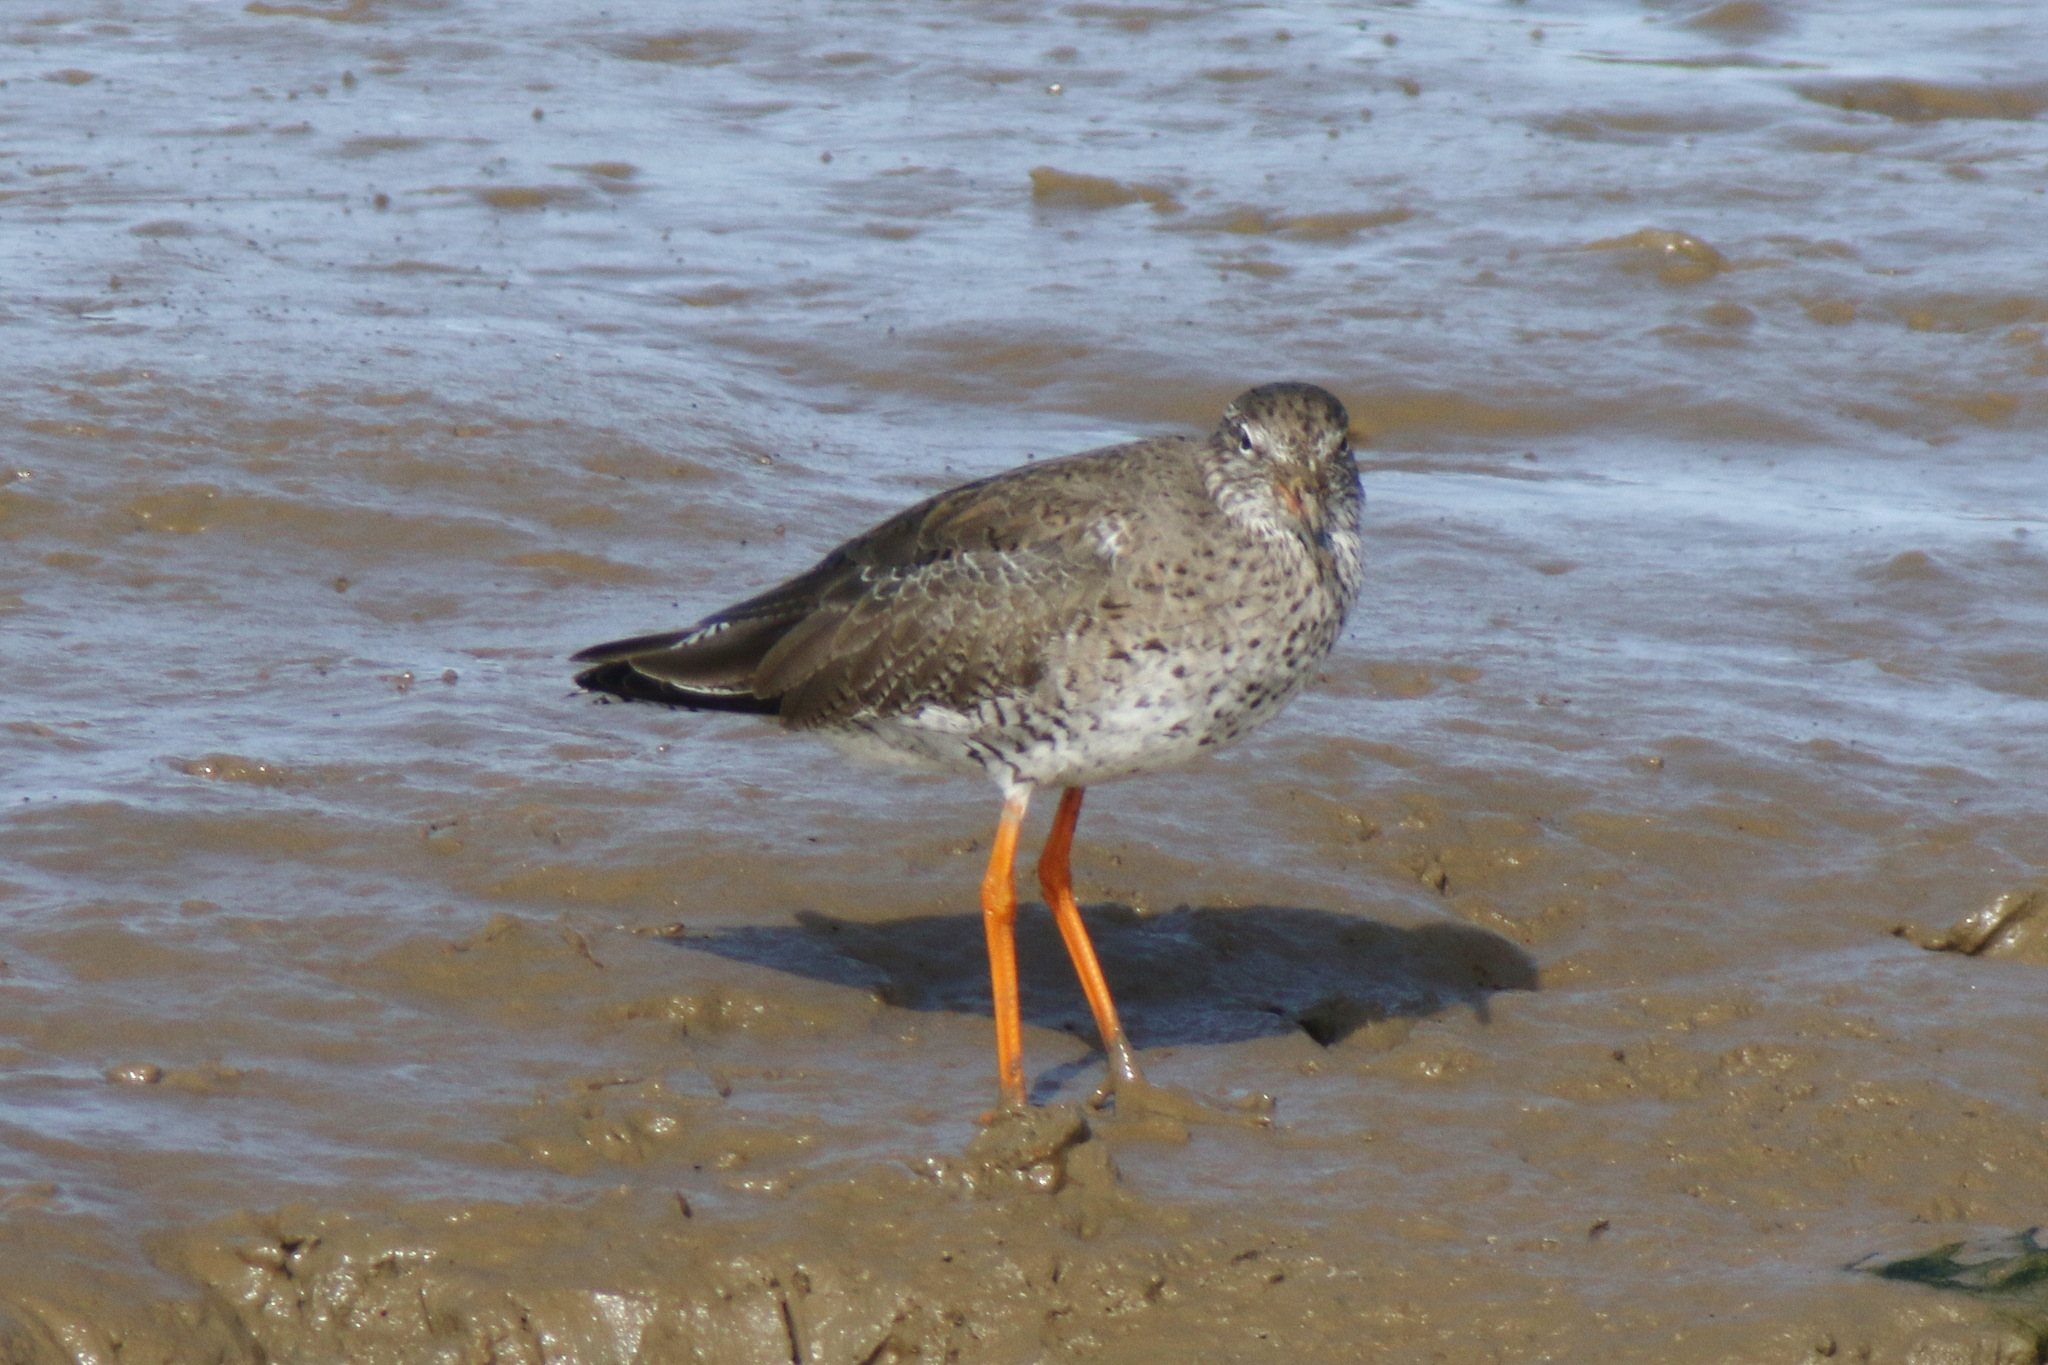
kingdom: Animalia
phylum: Chordata
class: Aves
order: Charadriiformes
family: Scolopacidae
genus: Tringa
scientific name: Tringa totanus
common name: Common redshank
